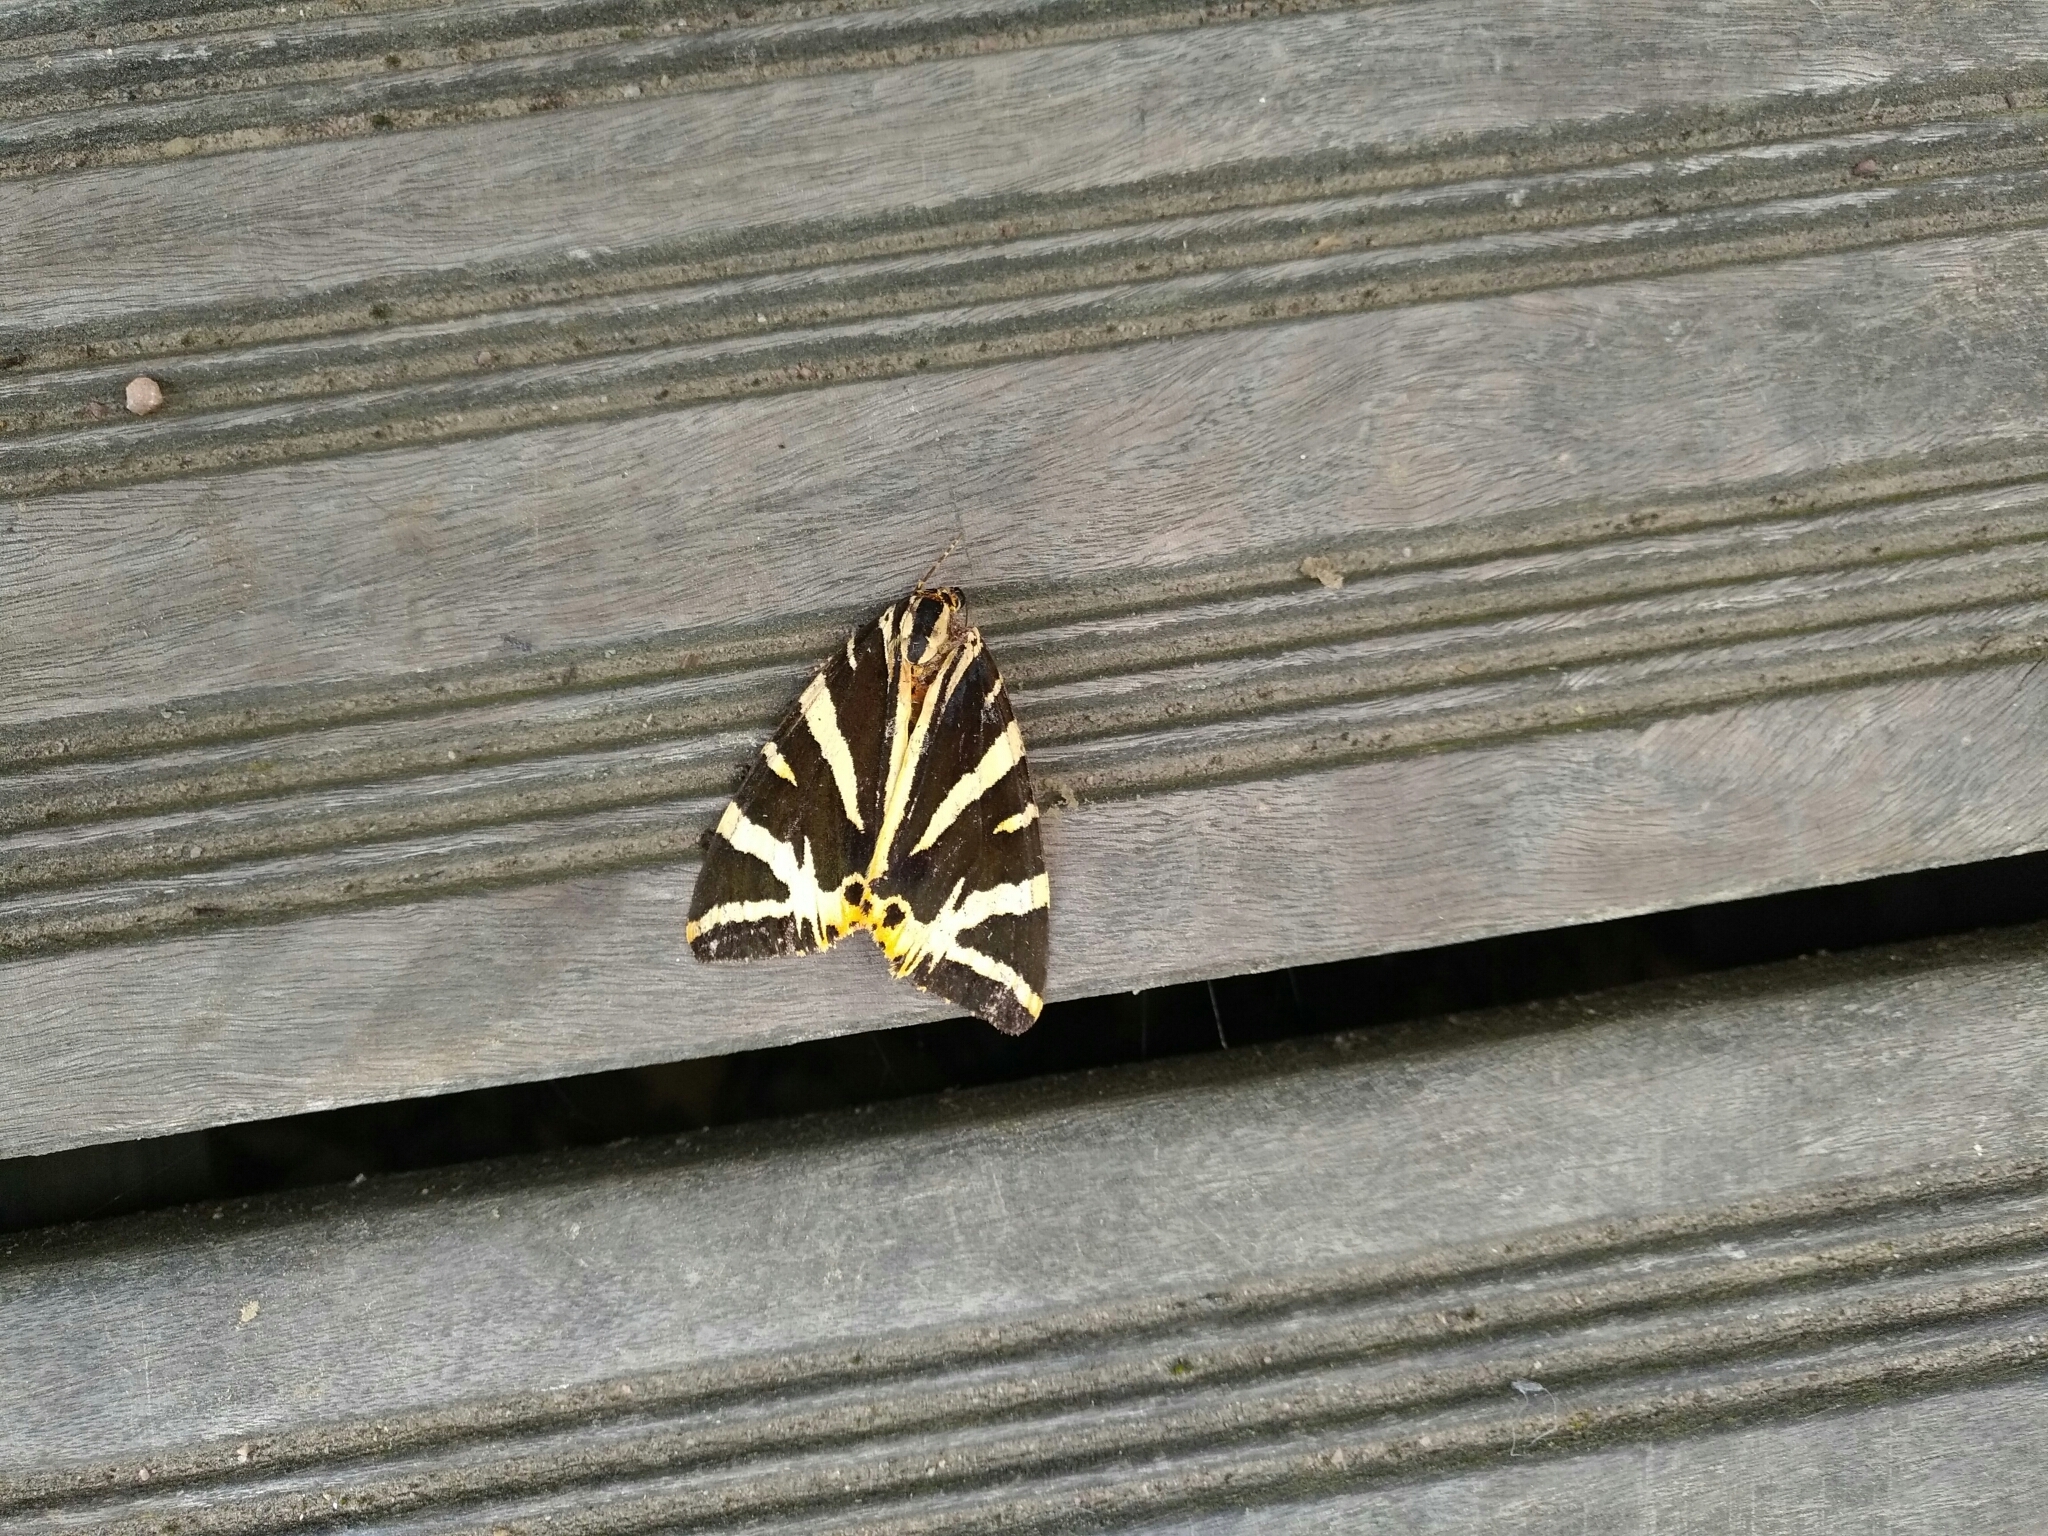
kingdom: Animalia
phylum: Arthropoda
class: Insecta
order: Lepidoptera
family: Erebidae
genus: Euplagia
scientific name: Euplagia quadripunctaria
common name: Jersey tiger
